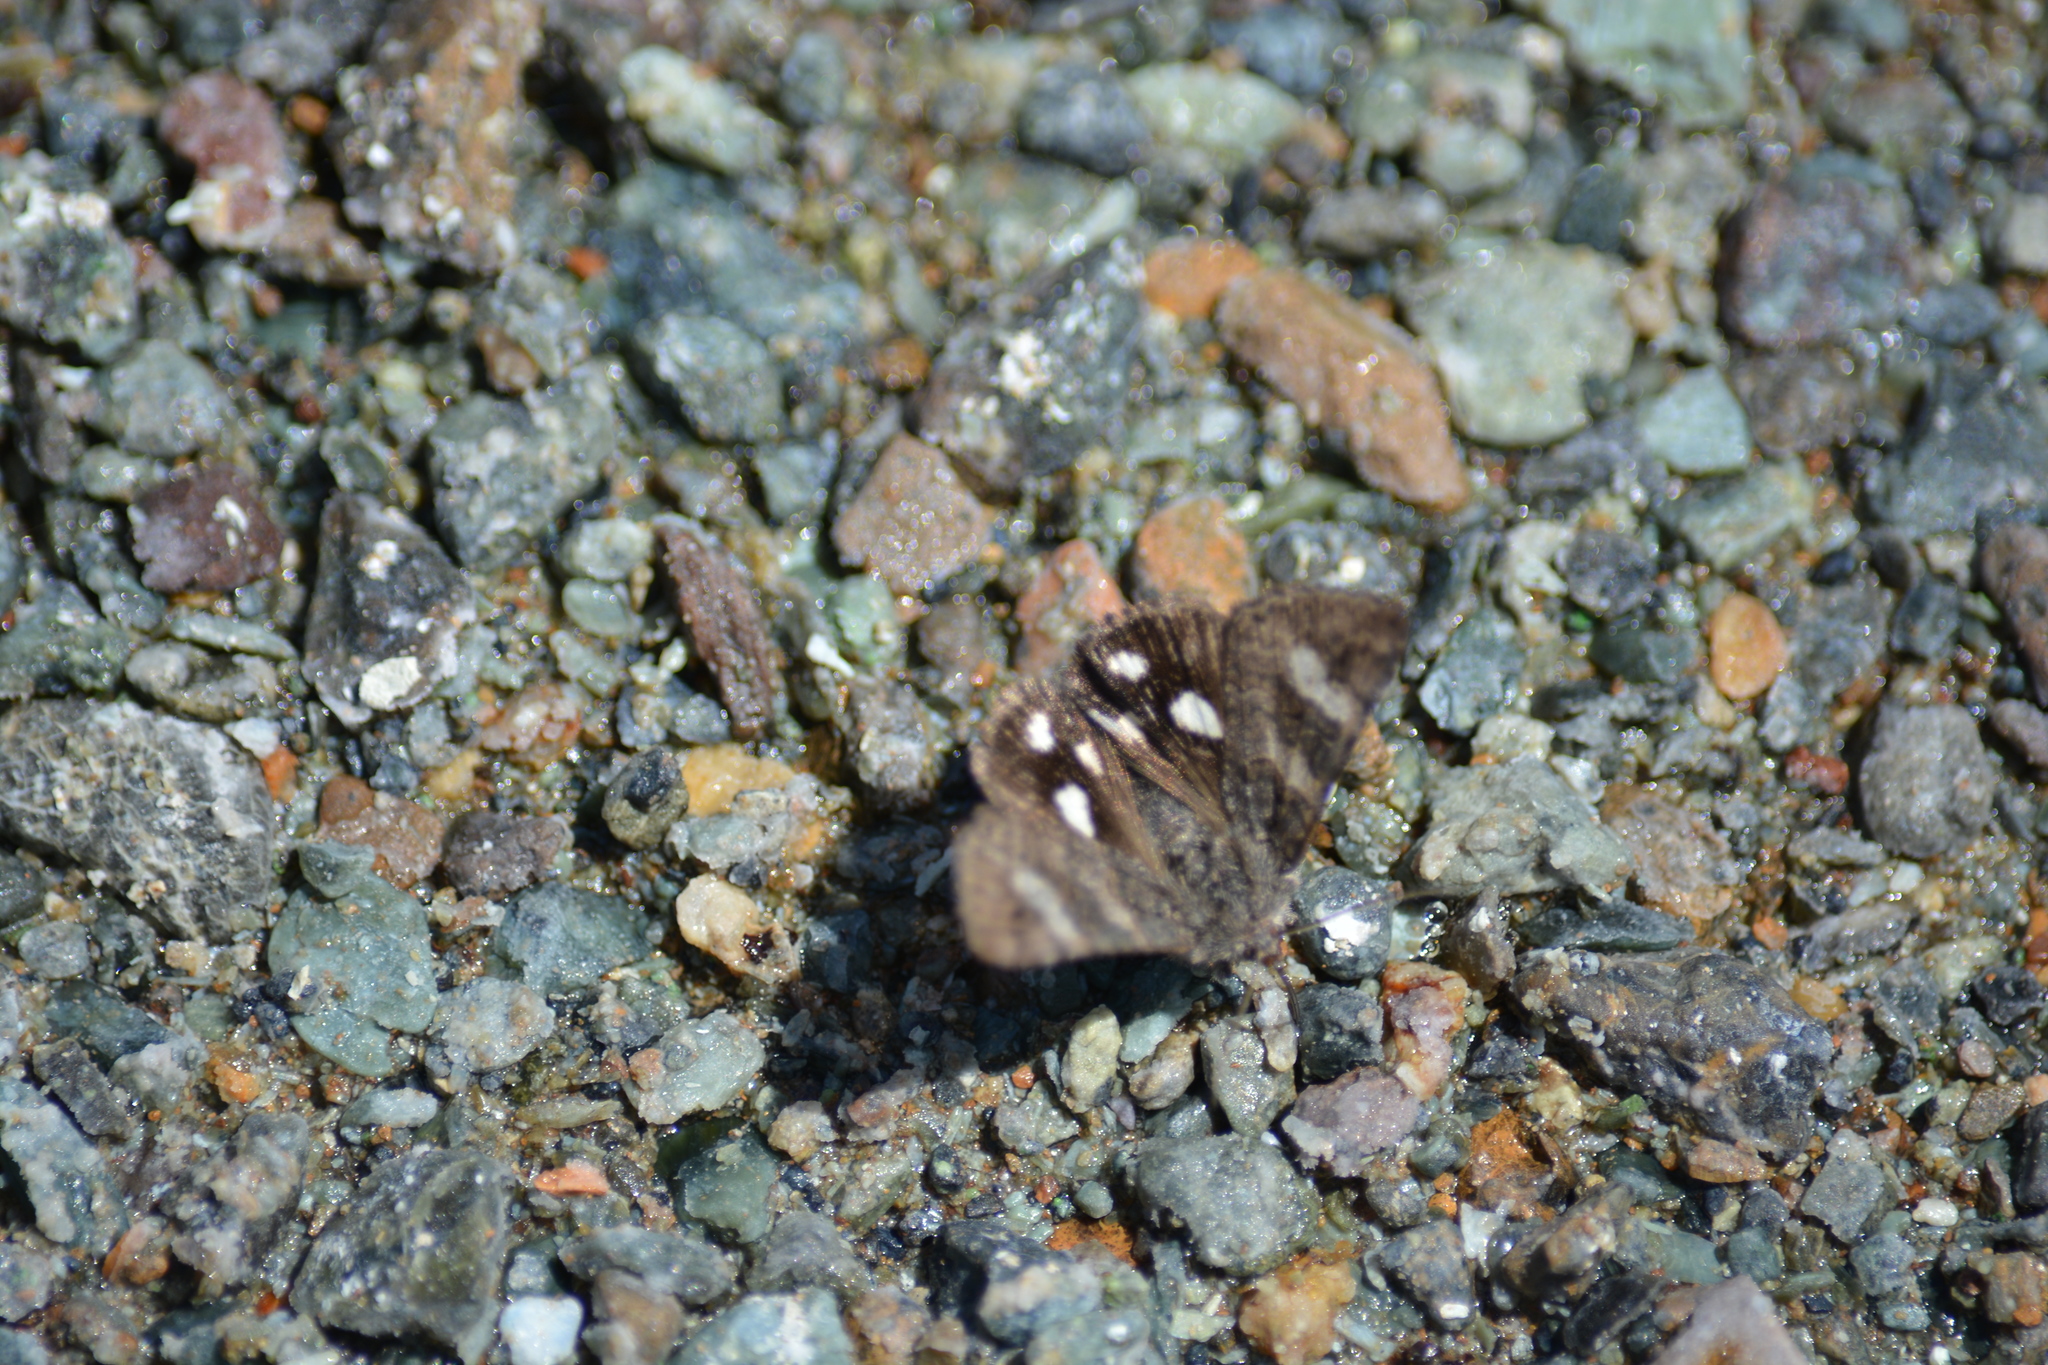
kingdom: Animalia
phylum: Arthropoda
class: Insecta
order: Lepidoptera
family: Erebidae
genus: Litocala
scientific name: Litocala sexsignata
